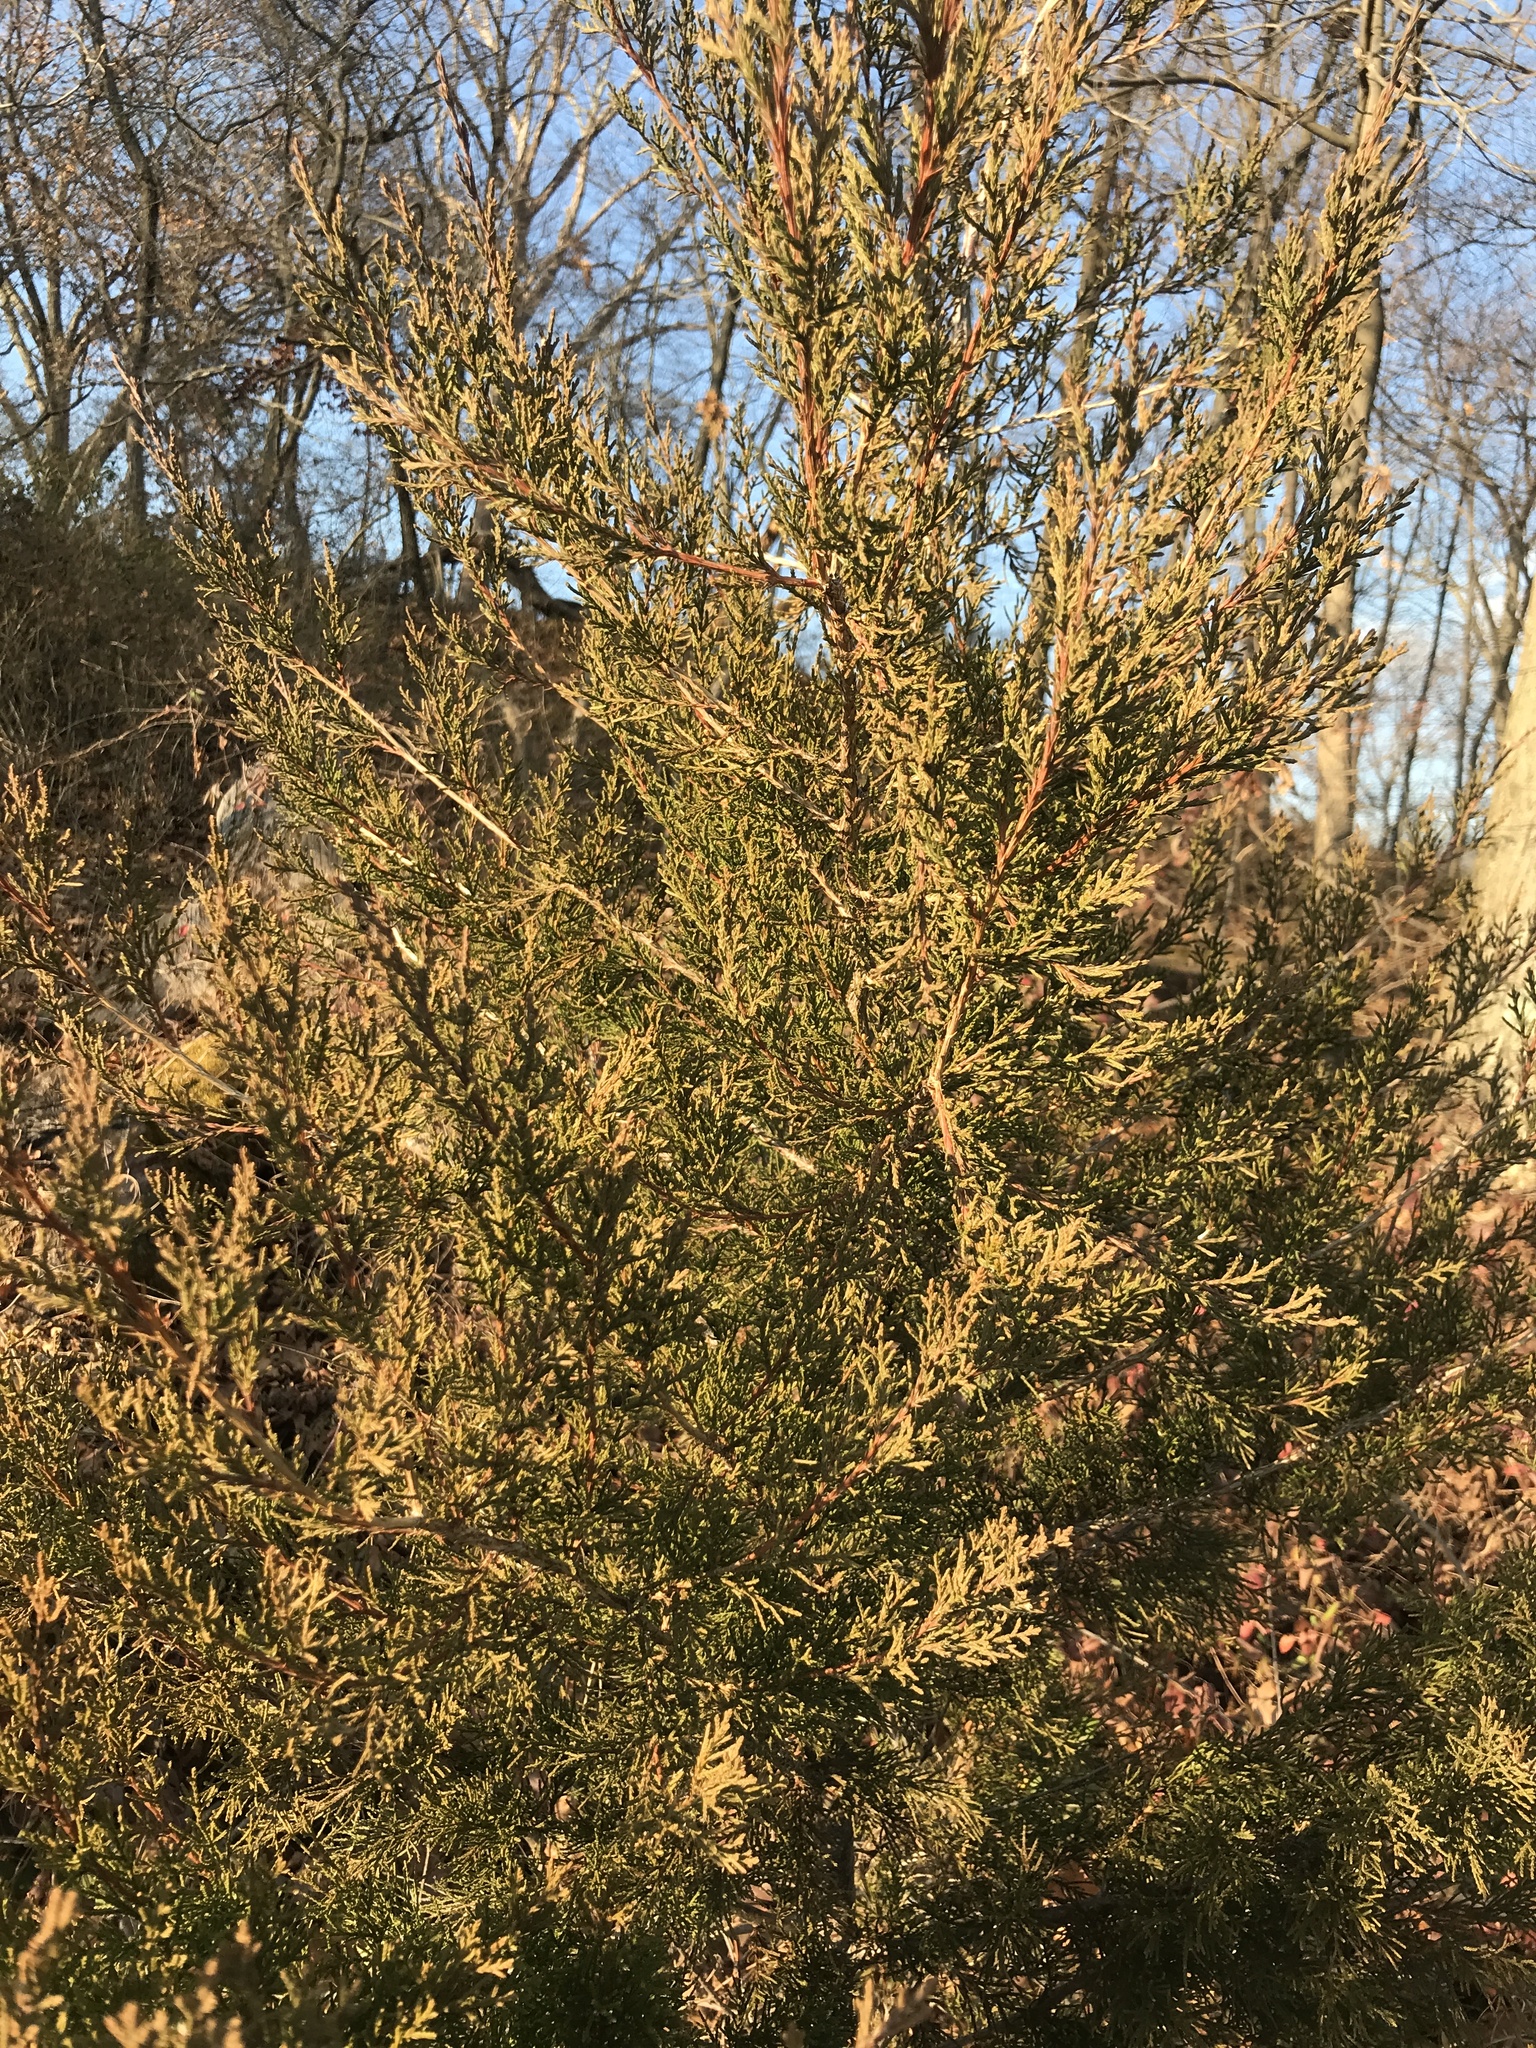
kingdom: Plantae
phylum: Tracheophyta
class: Pinopsida
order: Pinales
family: Cupressaceae
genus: Juniperus
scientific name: Juniperus virginiana
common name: Red juniper
